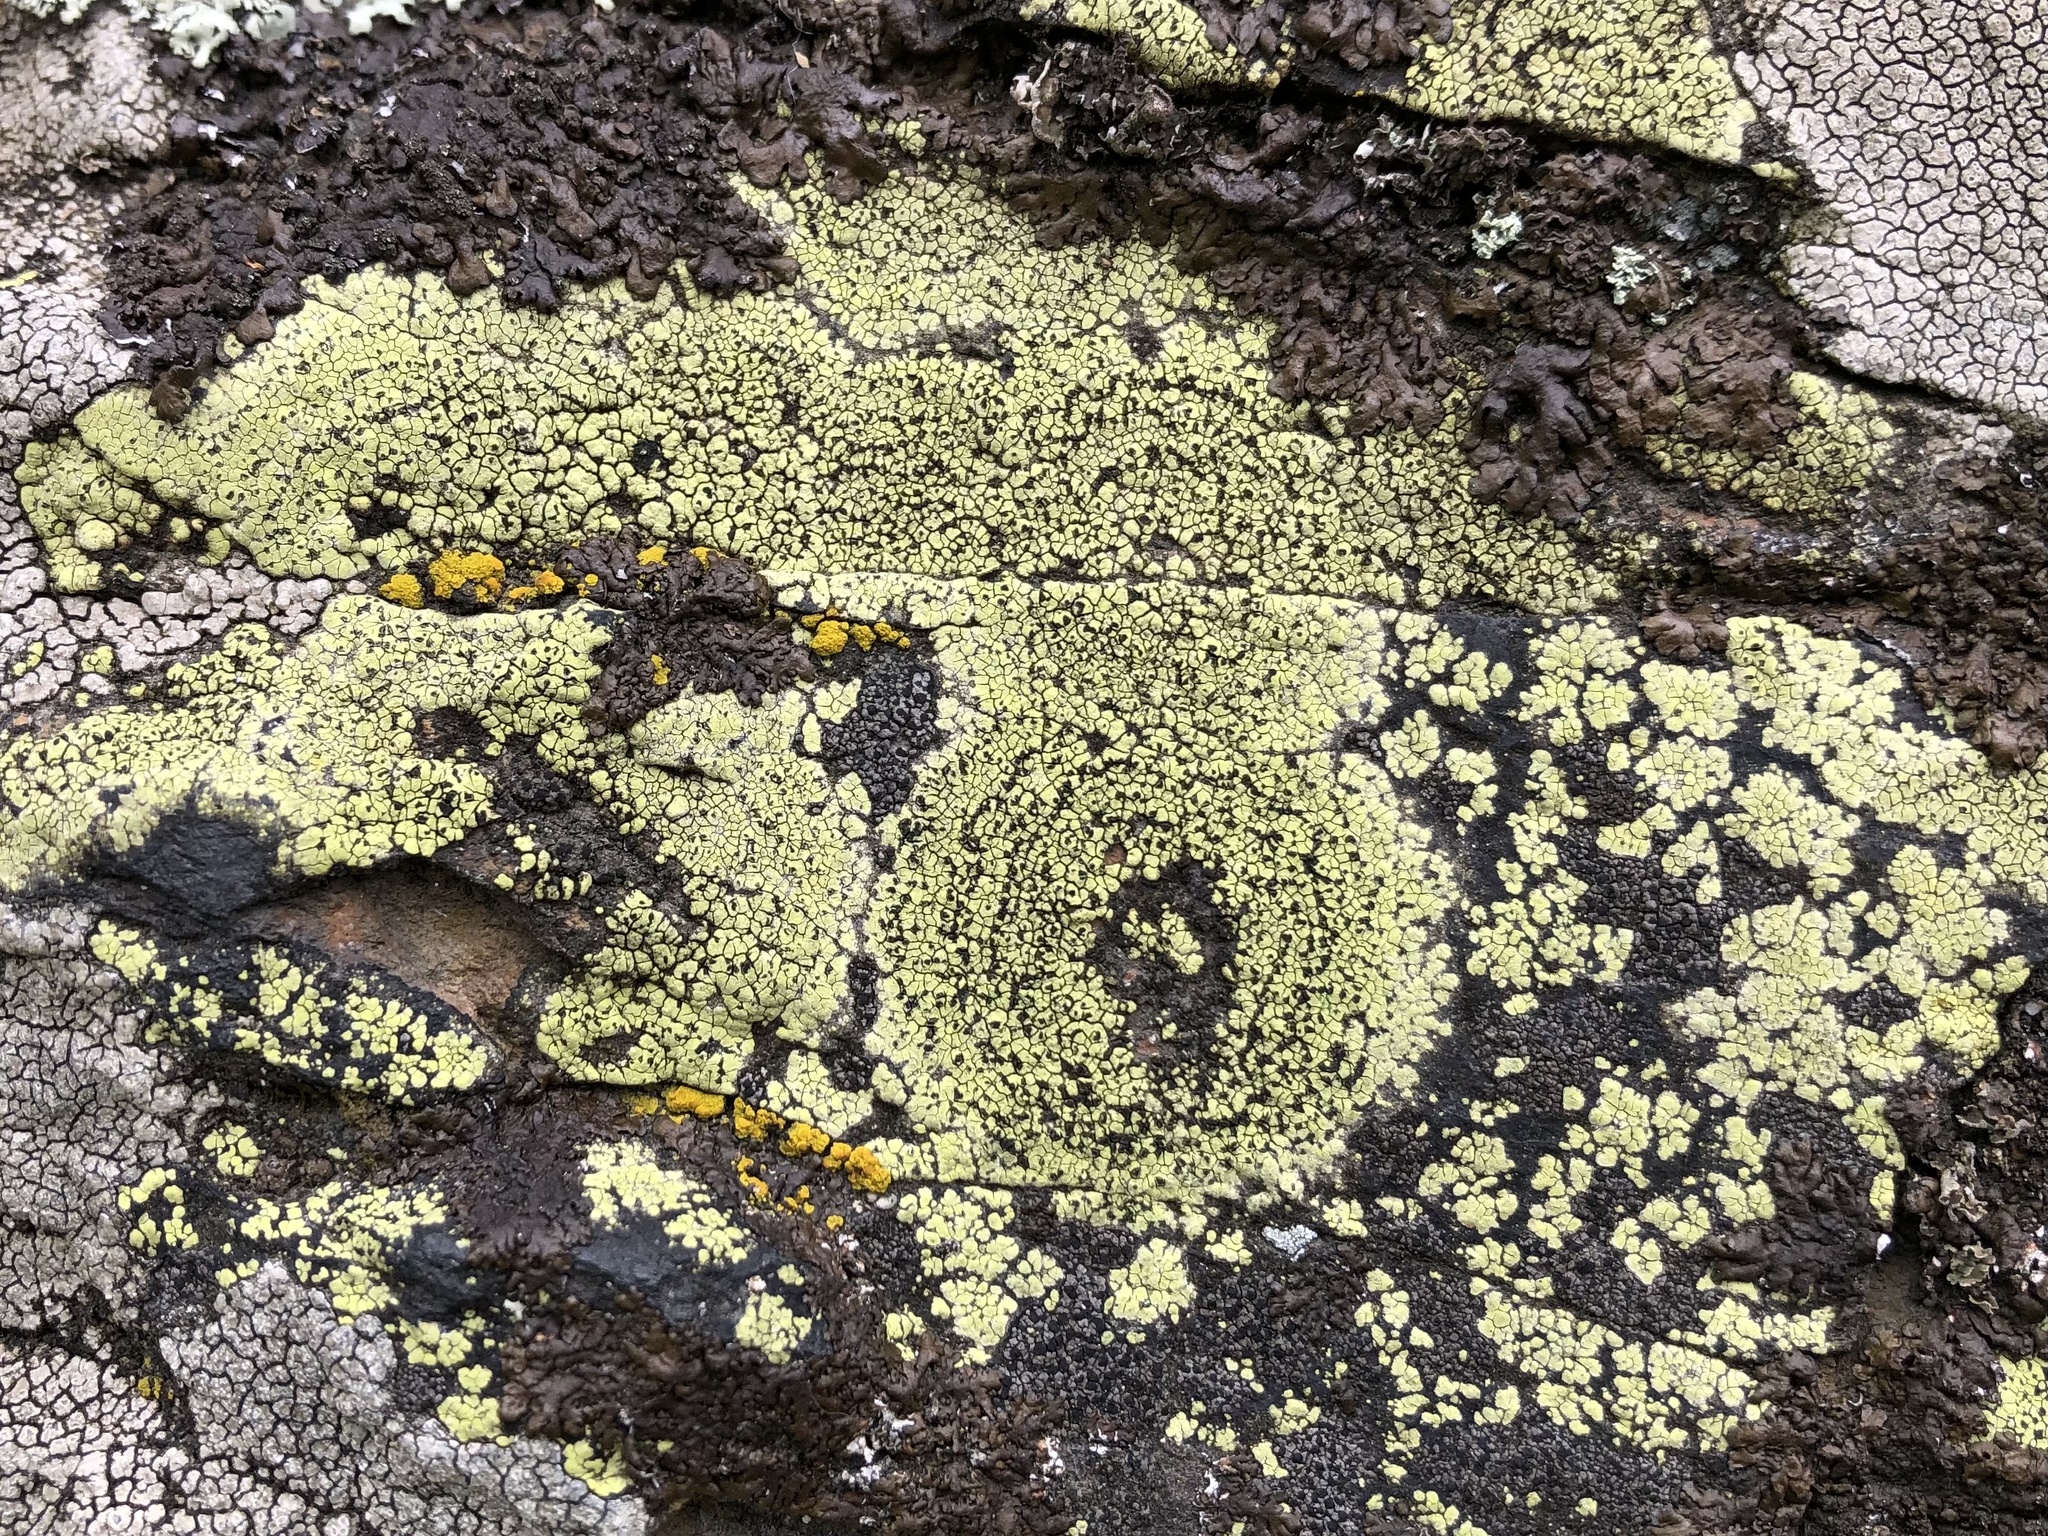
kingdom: Fungi
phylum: Ascomycota
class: Lecanoromycetes
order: Rhizocarpales
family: Rhizocarpaceae
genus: Rhizocarpon
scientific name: Rhizocarpon geographicum
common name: Yellow map lichen
